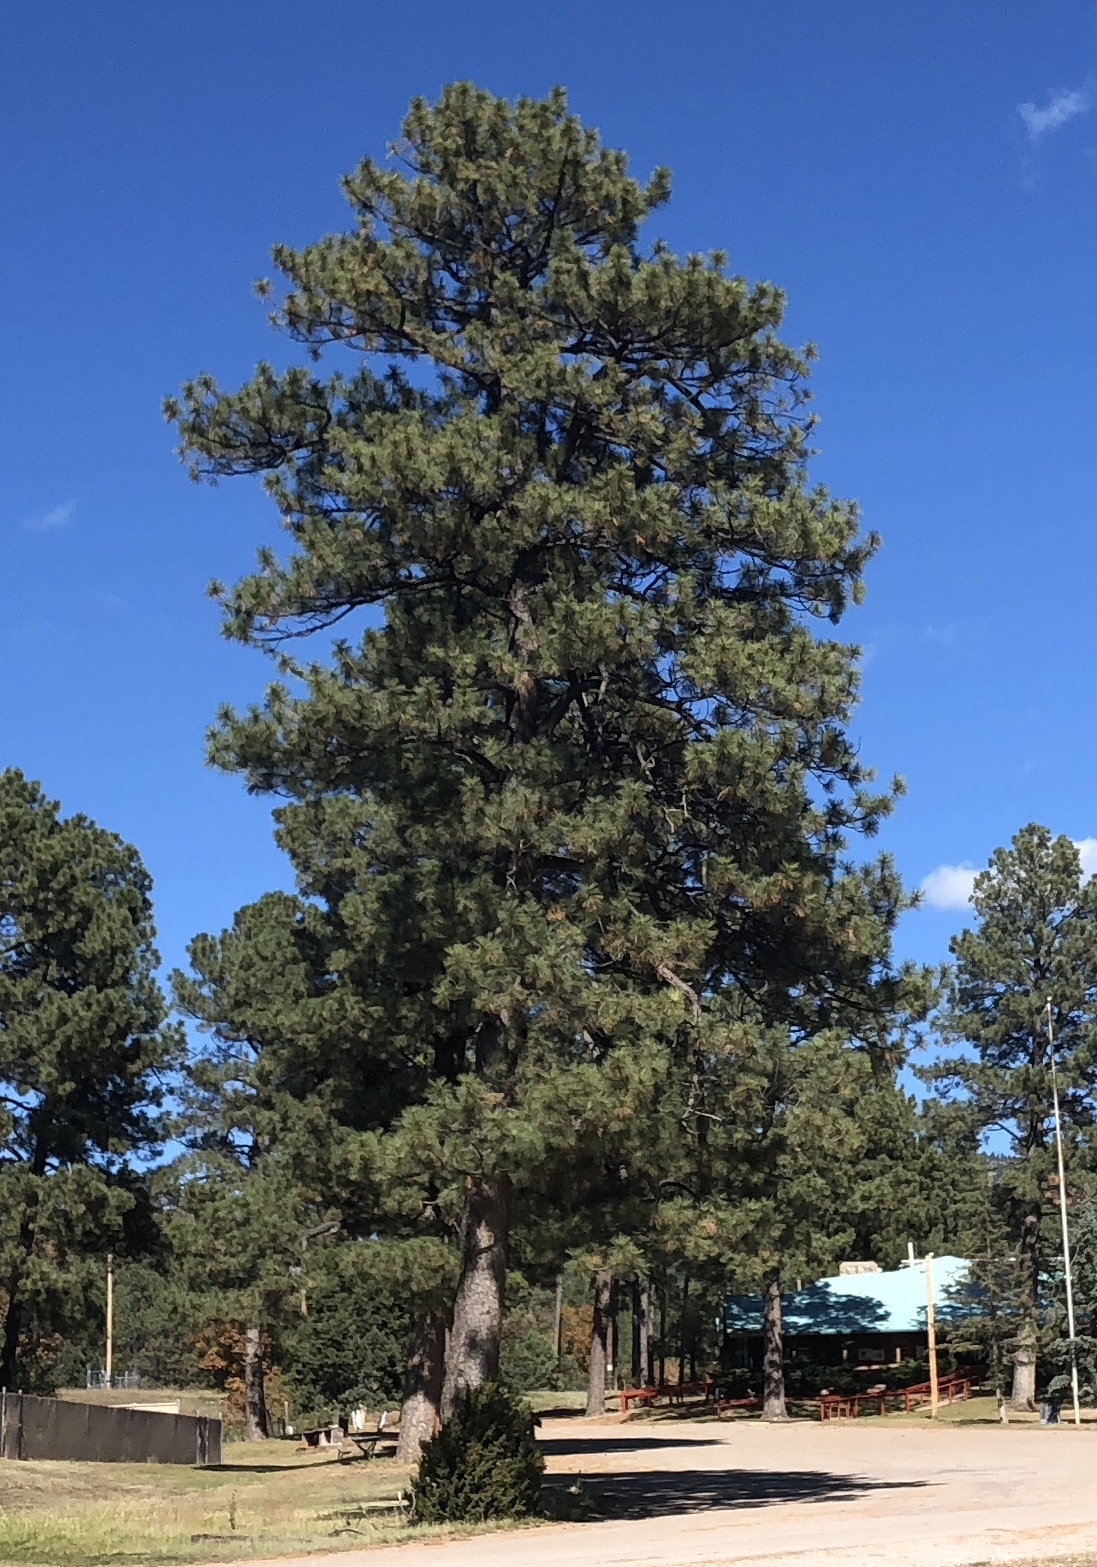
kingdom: Plantae
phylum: Tracheophyta
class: Pinopsida
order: Pinales
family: Pinaceae
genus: Pinus
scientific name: Pinus ponderosa
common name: Western yellow-pine
